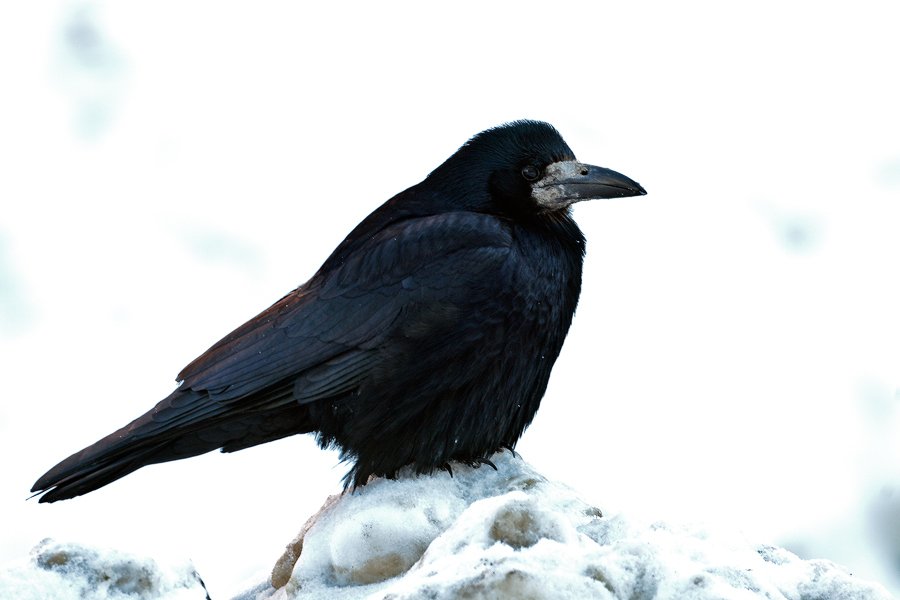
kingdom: Animalia
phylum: Chordata
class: Aves
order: Passeriformes
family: Corvidae
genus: Corvus
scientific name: Corvus frugilegus
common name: Rook
